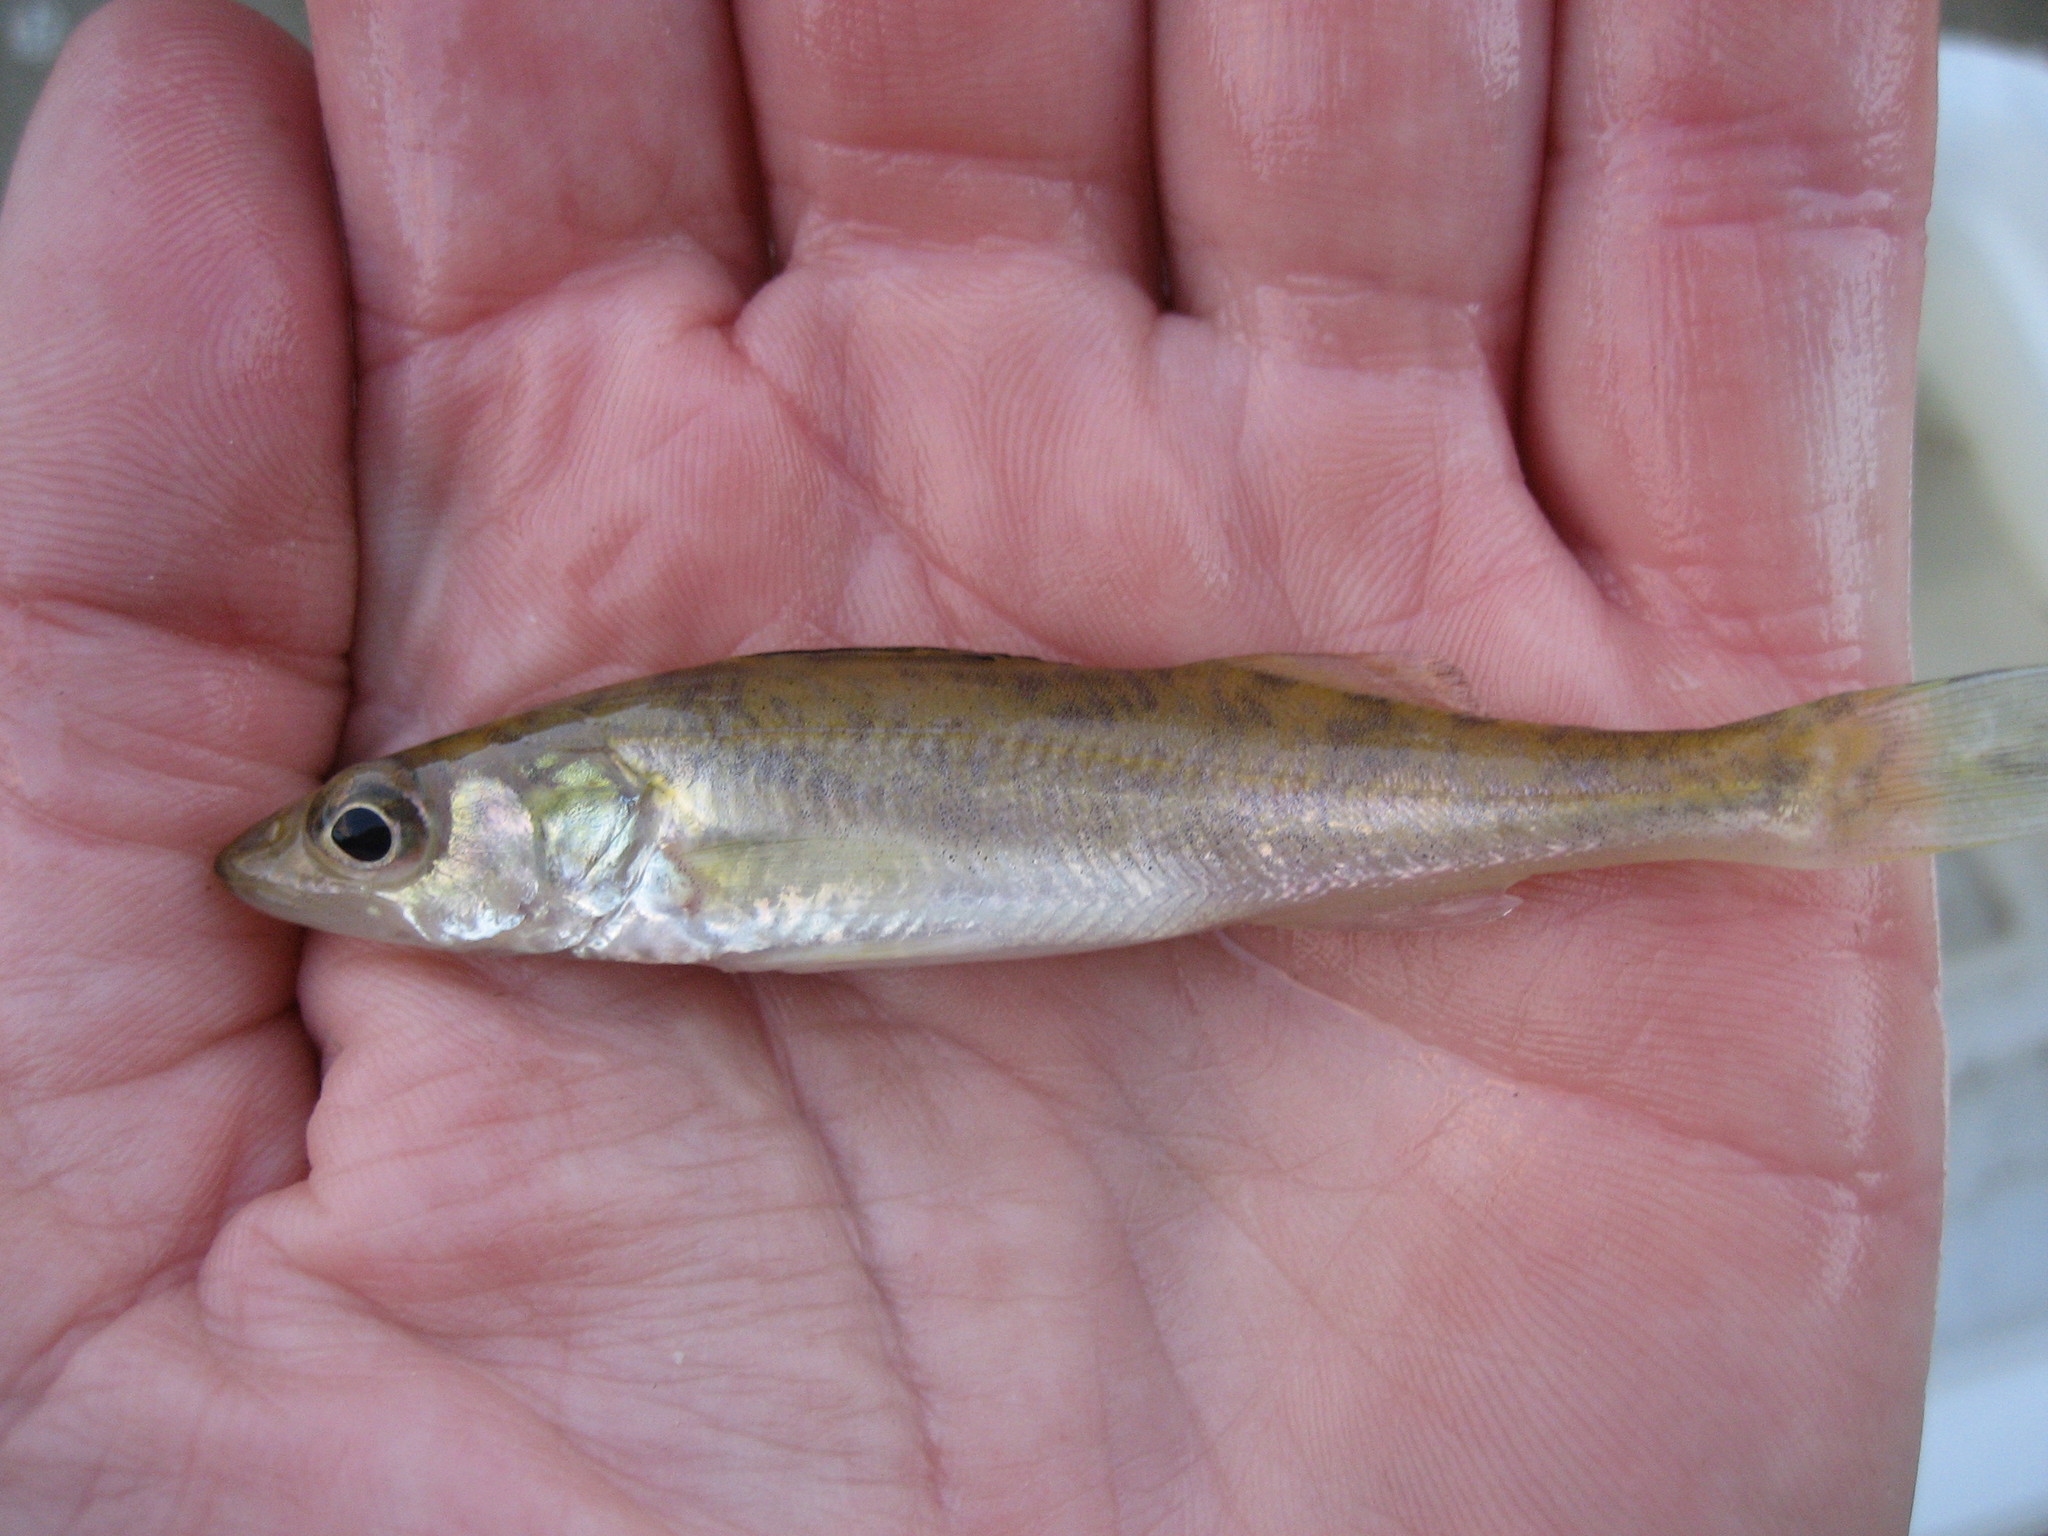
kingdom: Animalia
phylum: Chordata
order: Perciformes
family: Percidae
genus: Sander
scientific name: Sander vitreus
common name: Walleye
